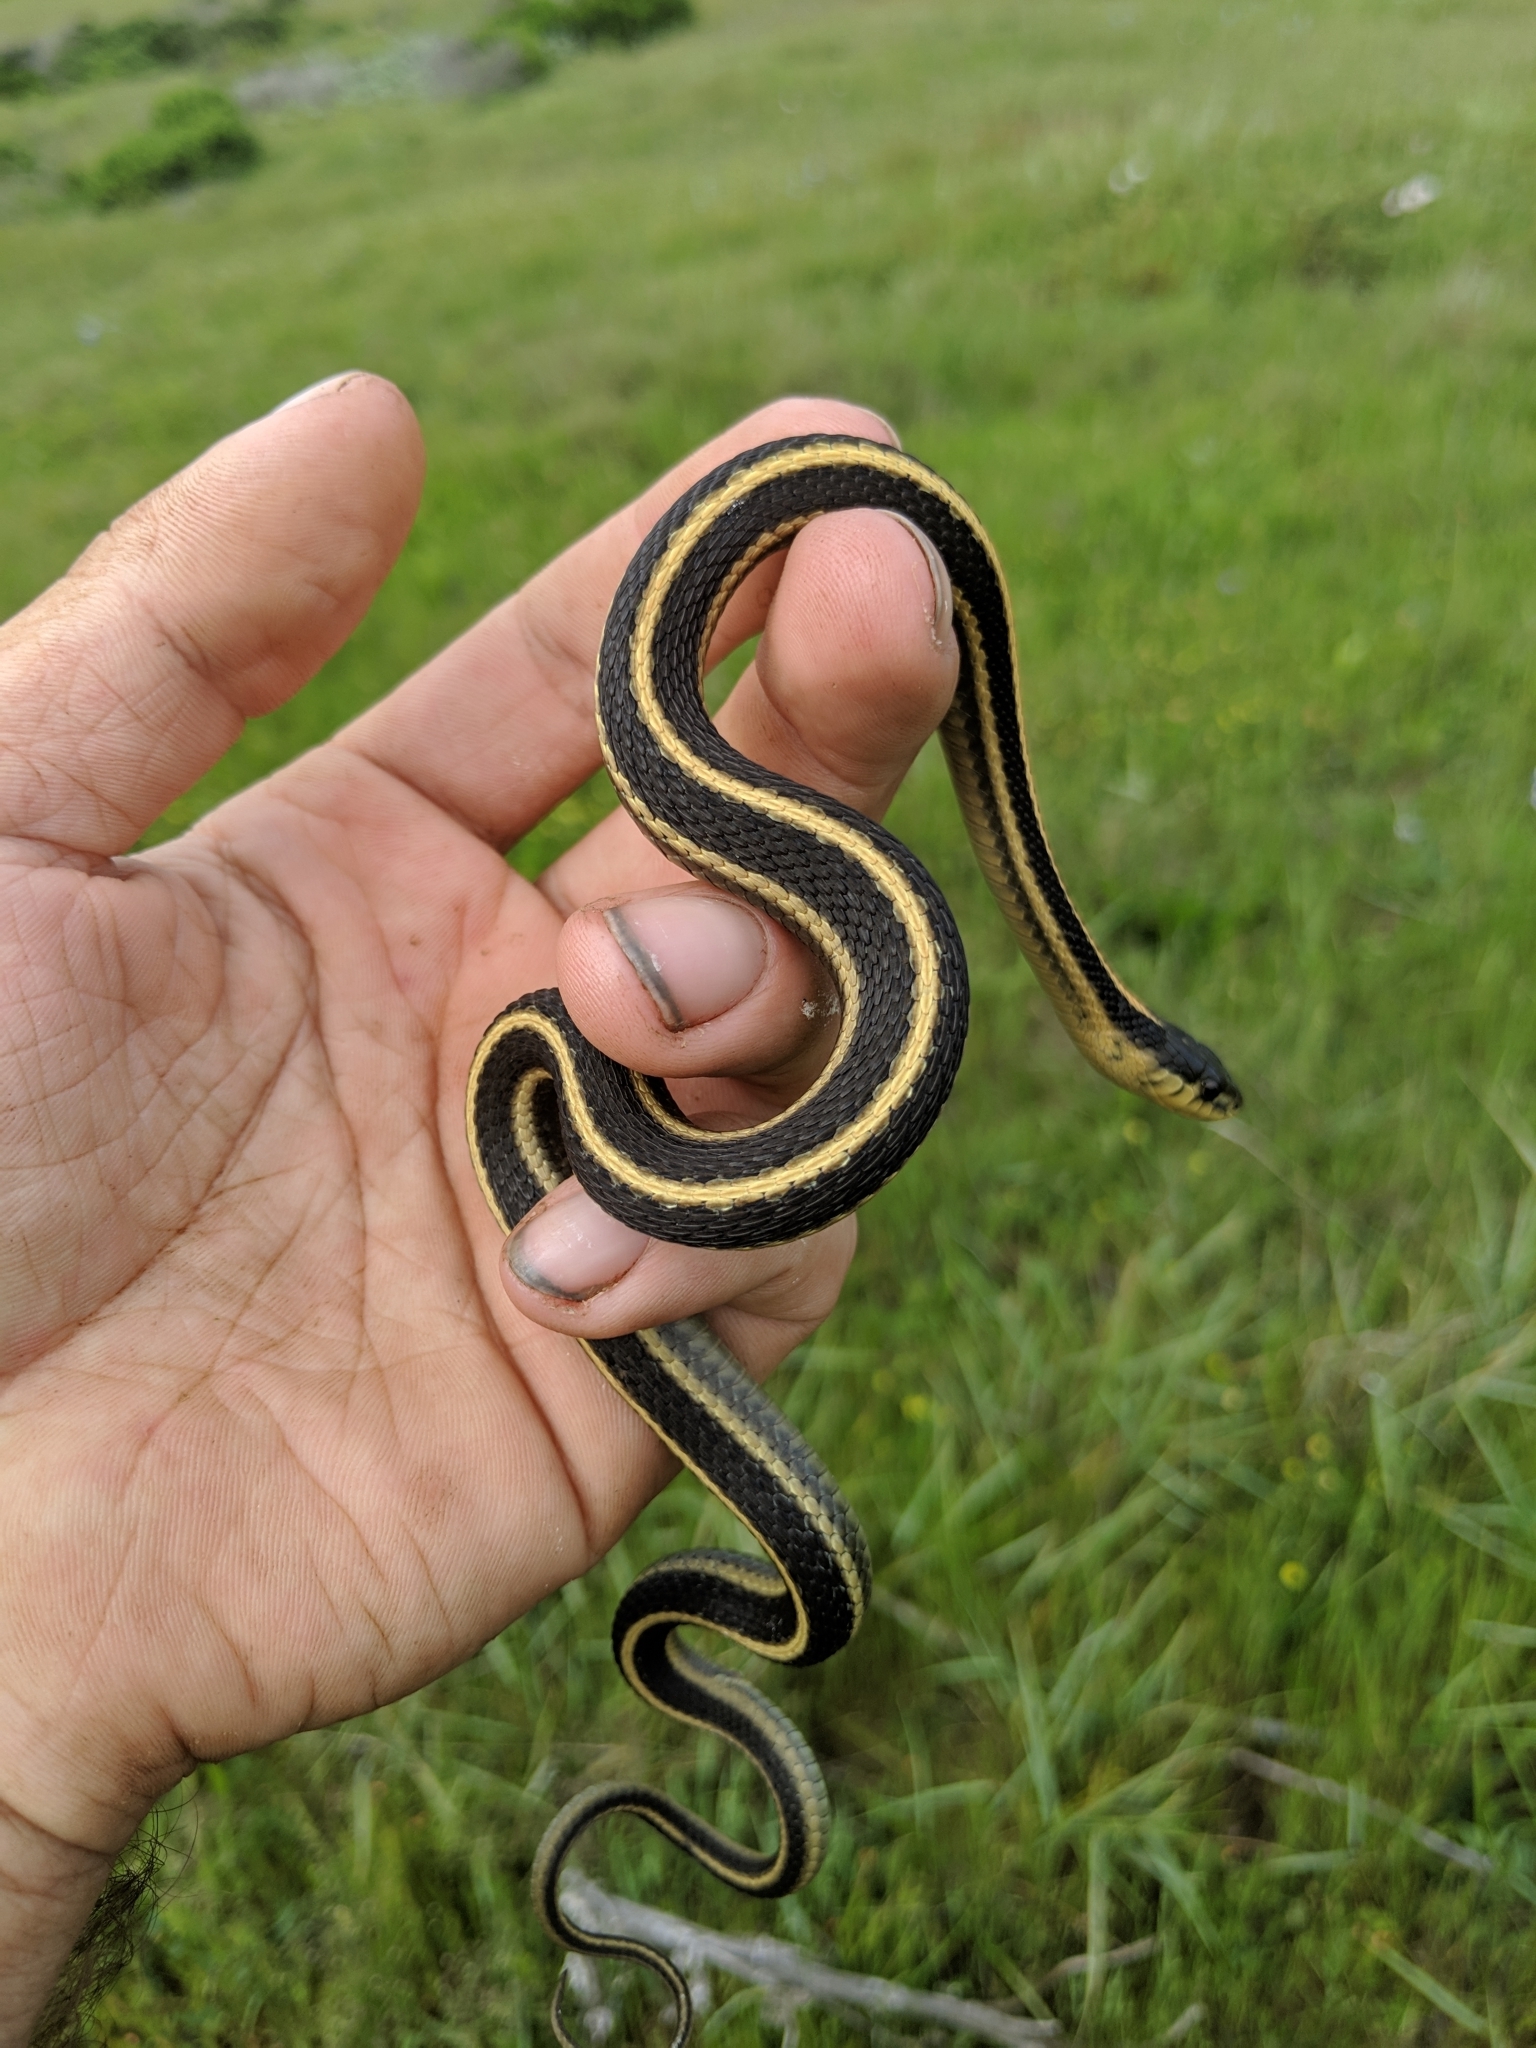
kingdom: Animalia
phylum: Chordata
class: Squamata
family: Colubridae
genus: Thamnophis
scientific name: Thamnophis elegans
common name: Western terrestrial garter snake
